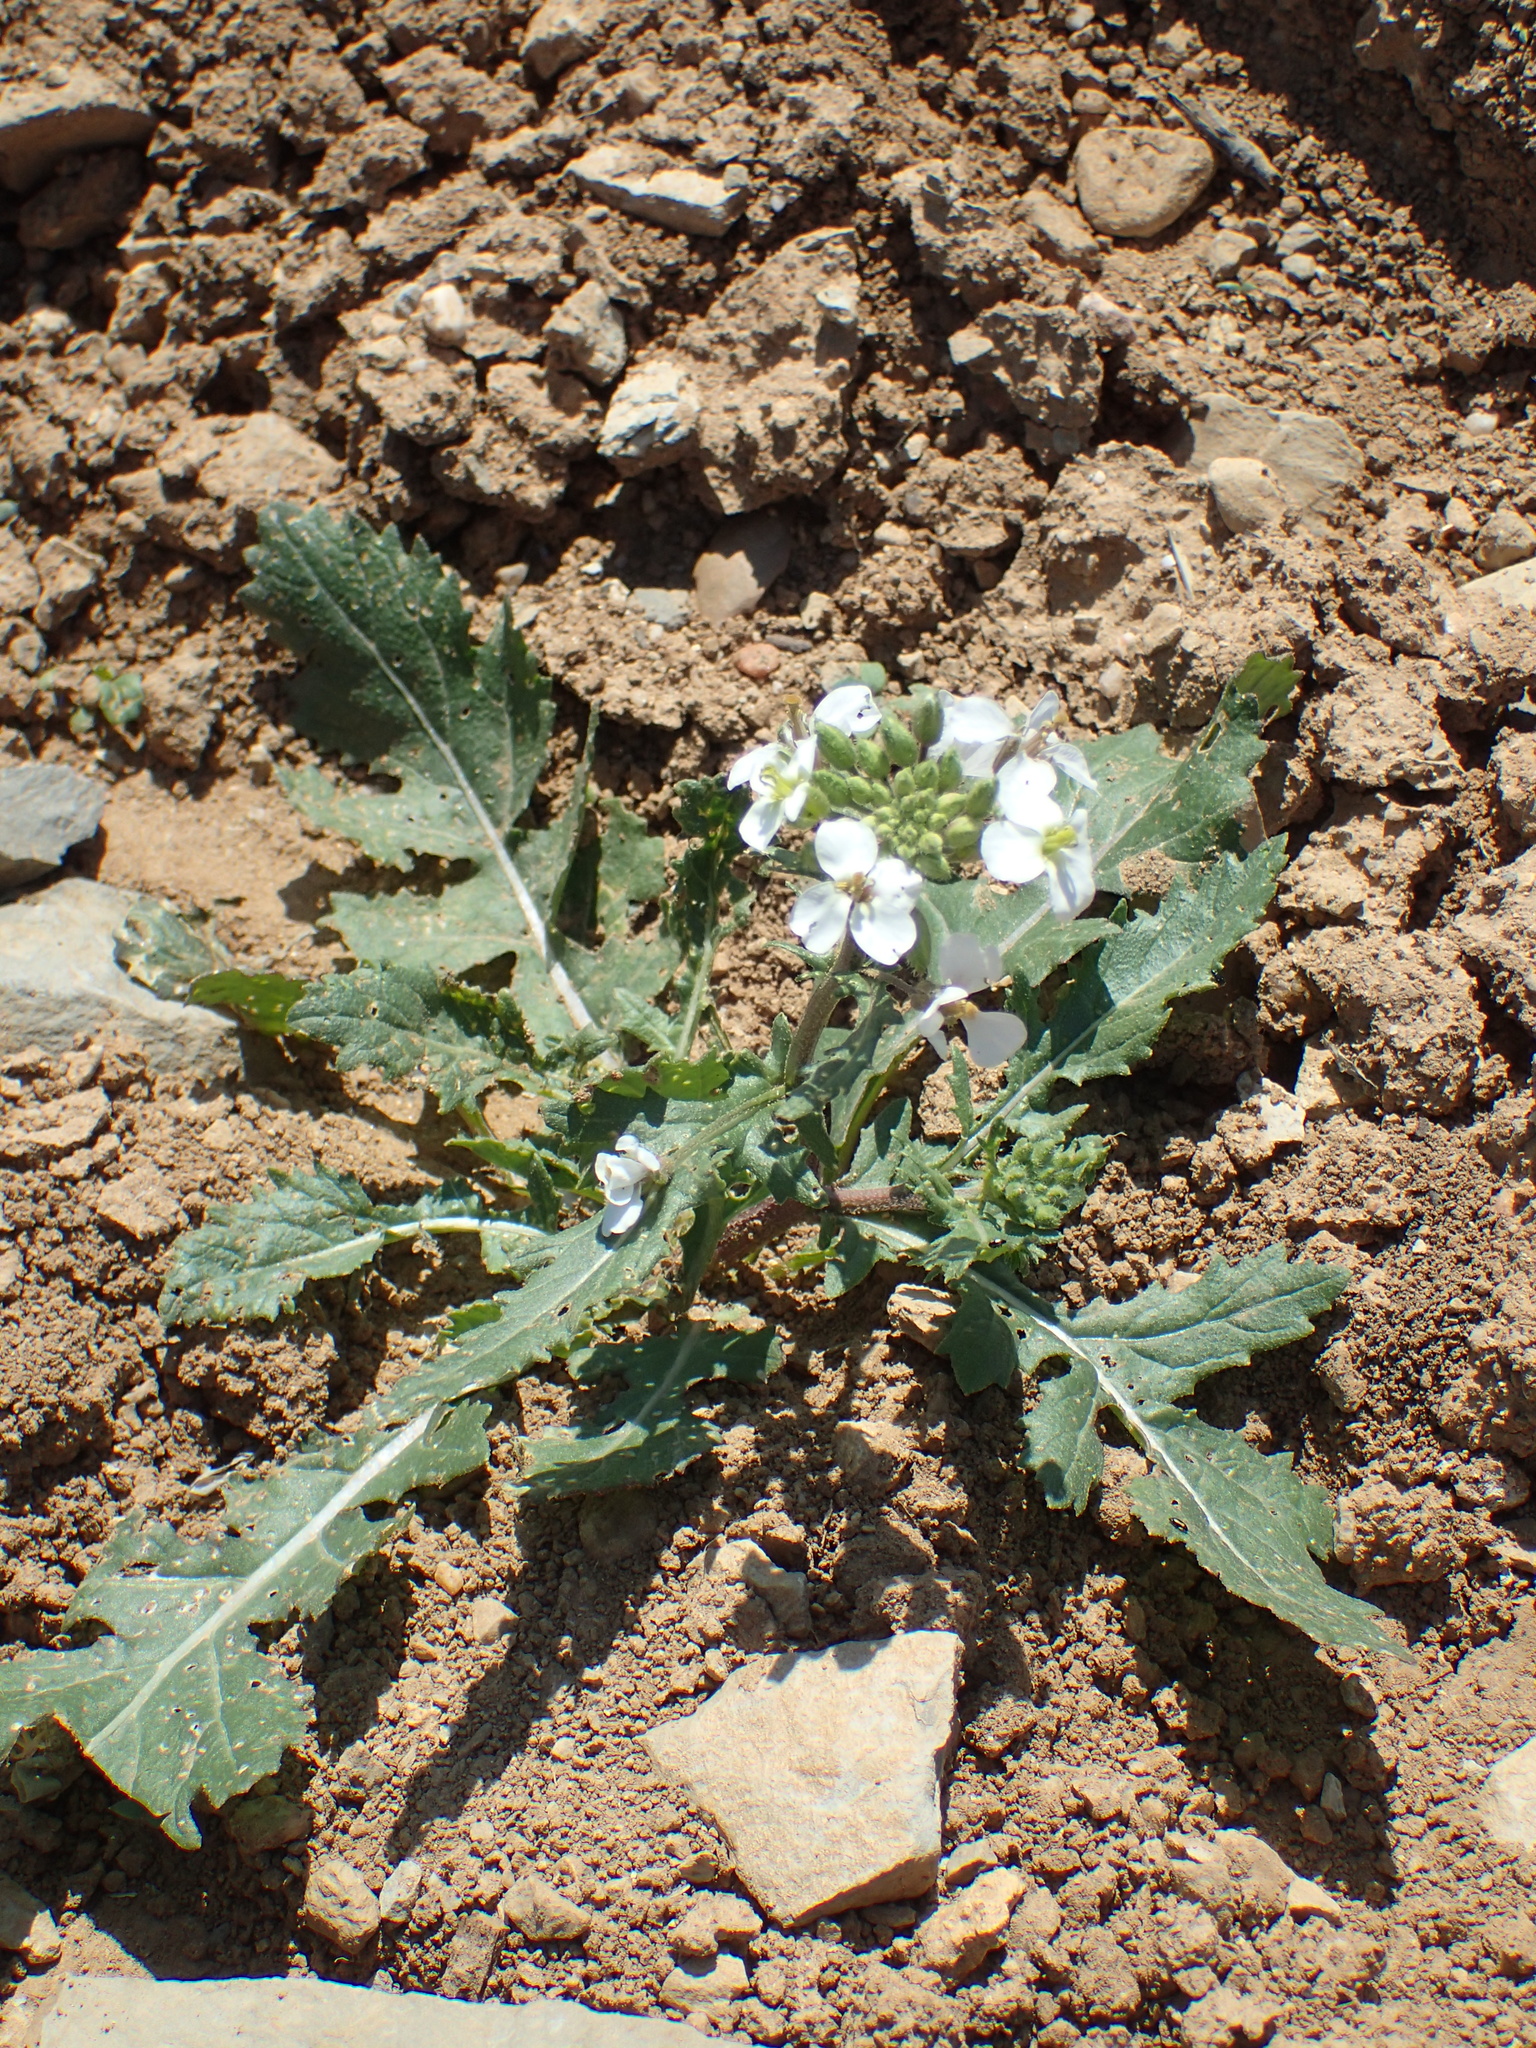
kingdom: Plantae
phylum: Tracheophyta
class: Magnoliopsida
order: Brassicales
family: Brassicaceae
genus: Diplotaxis
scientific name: Diplotaxis erucoides
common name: White rocket
